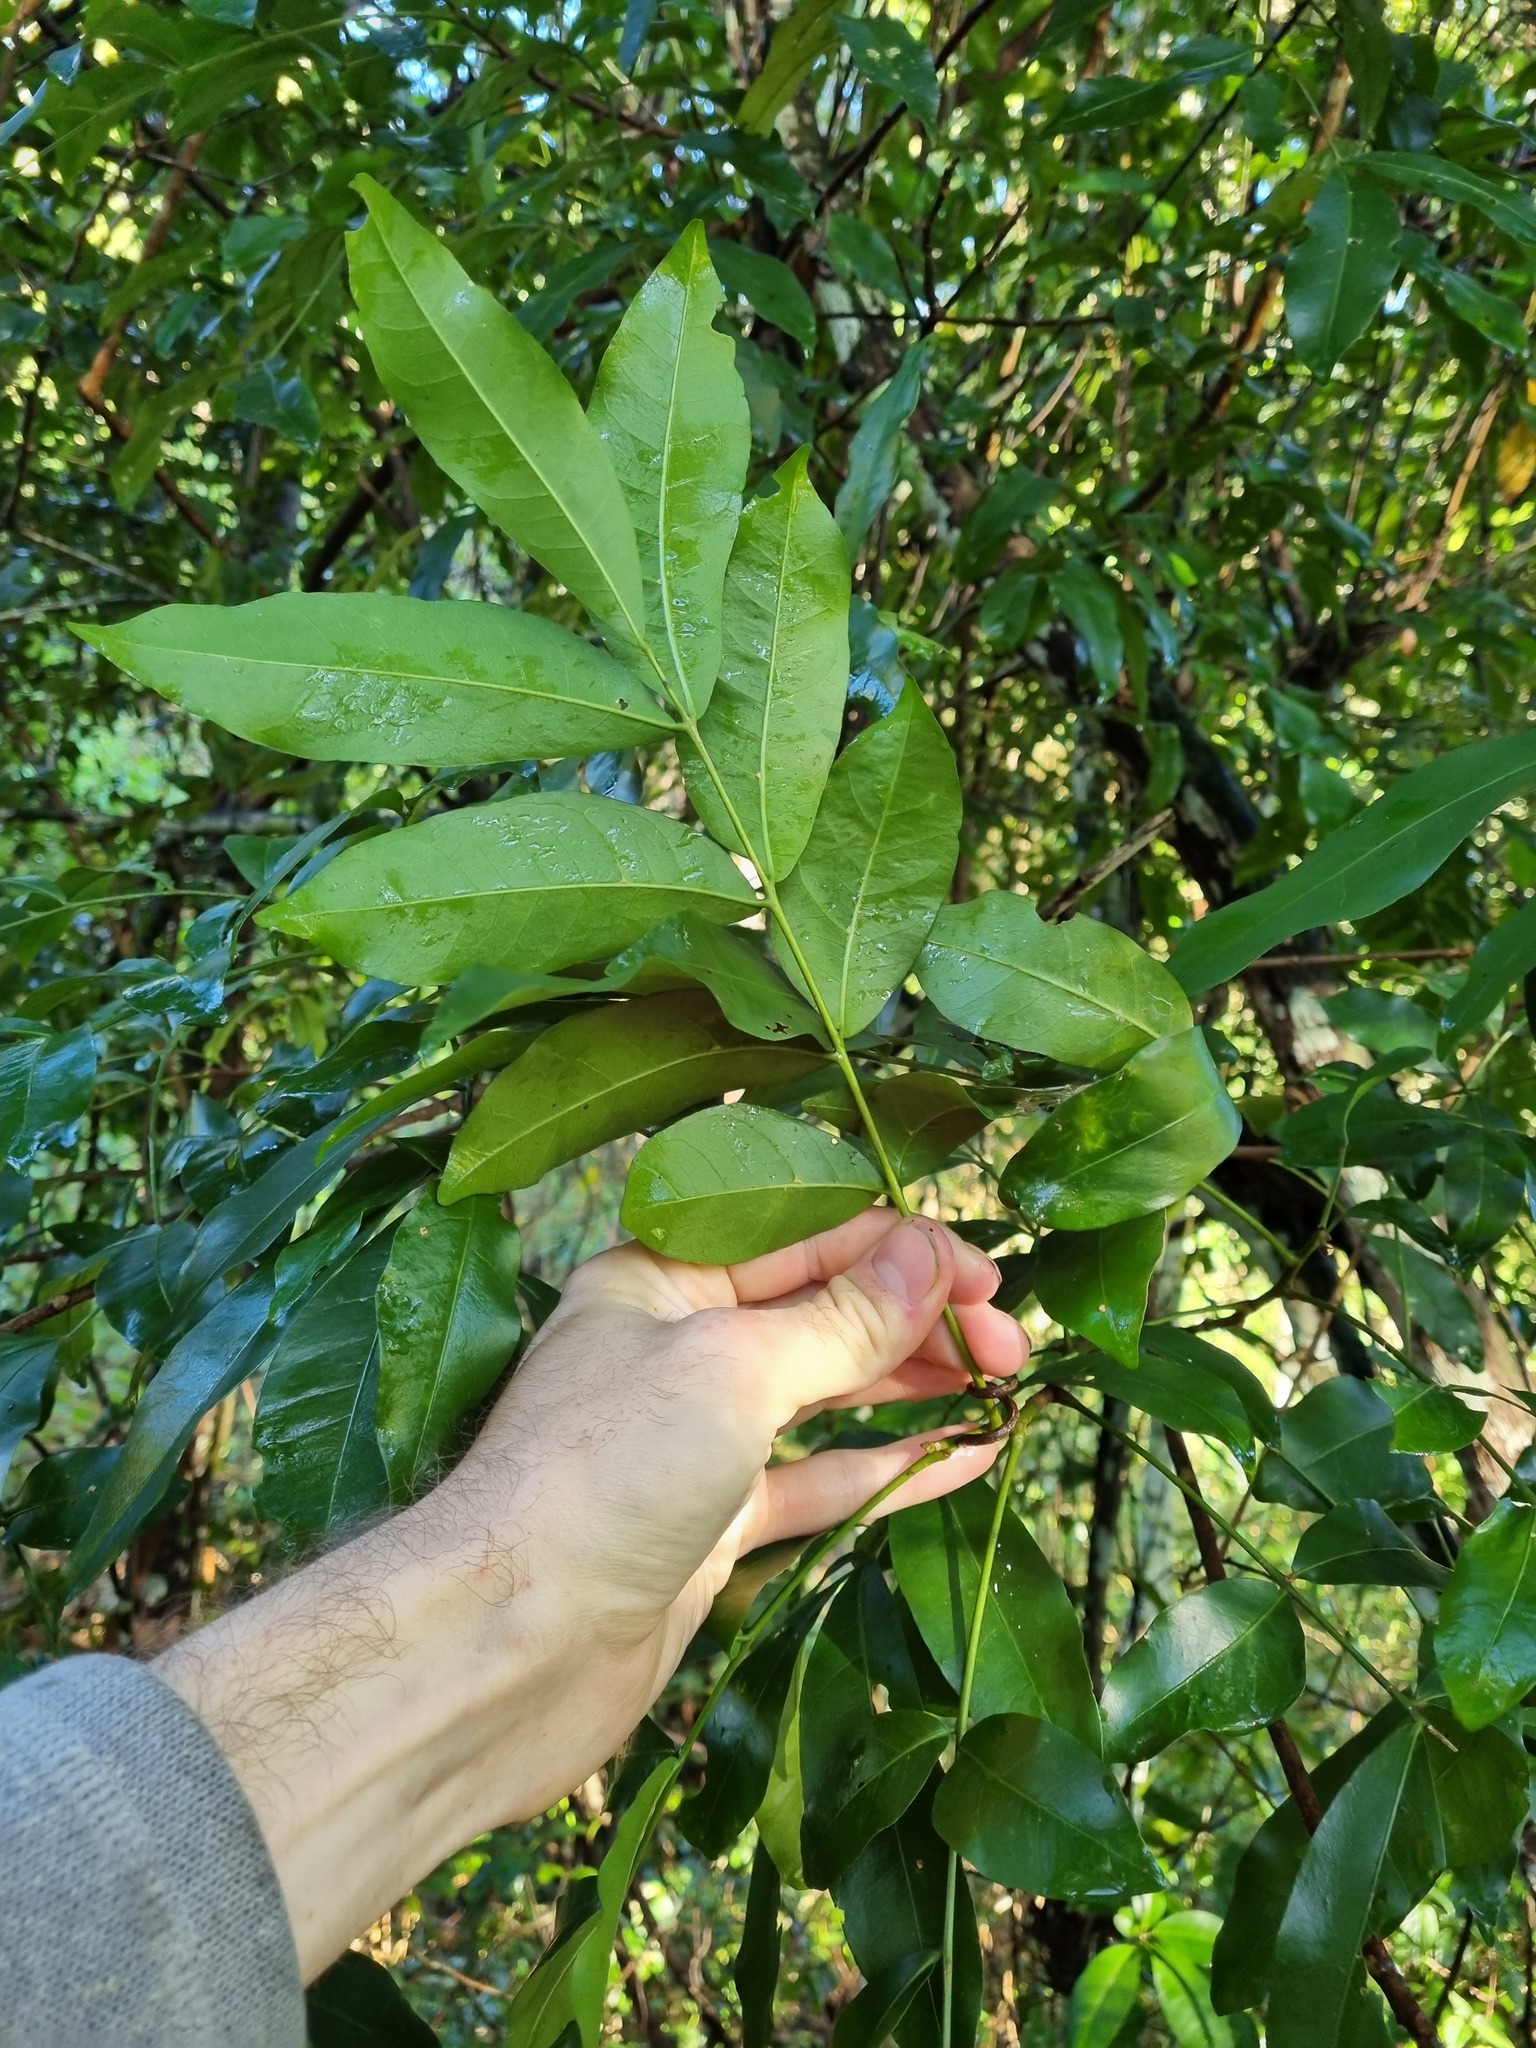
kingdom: Plantae
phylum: Tracheophyta
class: Magnoliopsida
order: Sapindales
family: Meliaceae
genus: Synoum
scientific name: Synoum glandulosum
